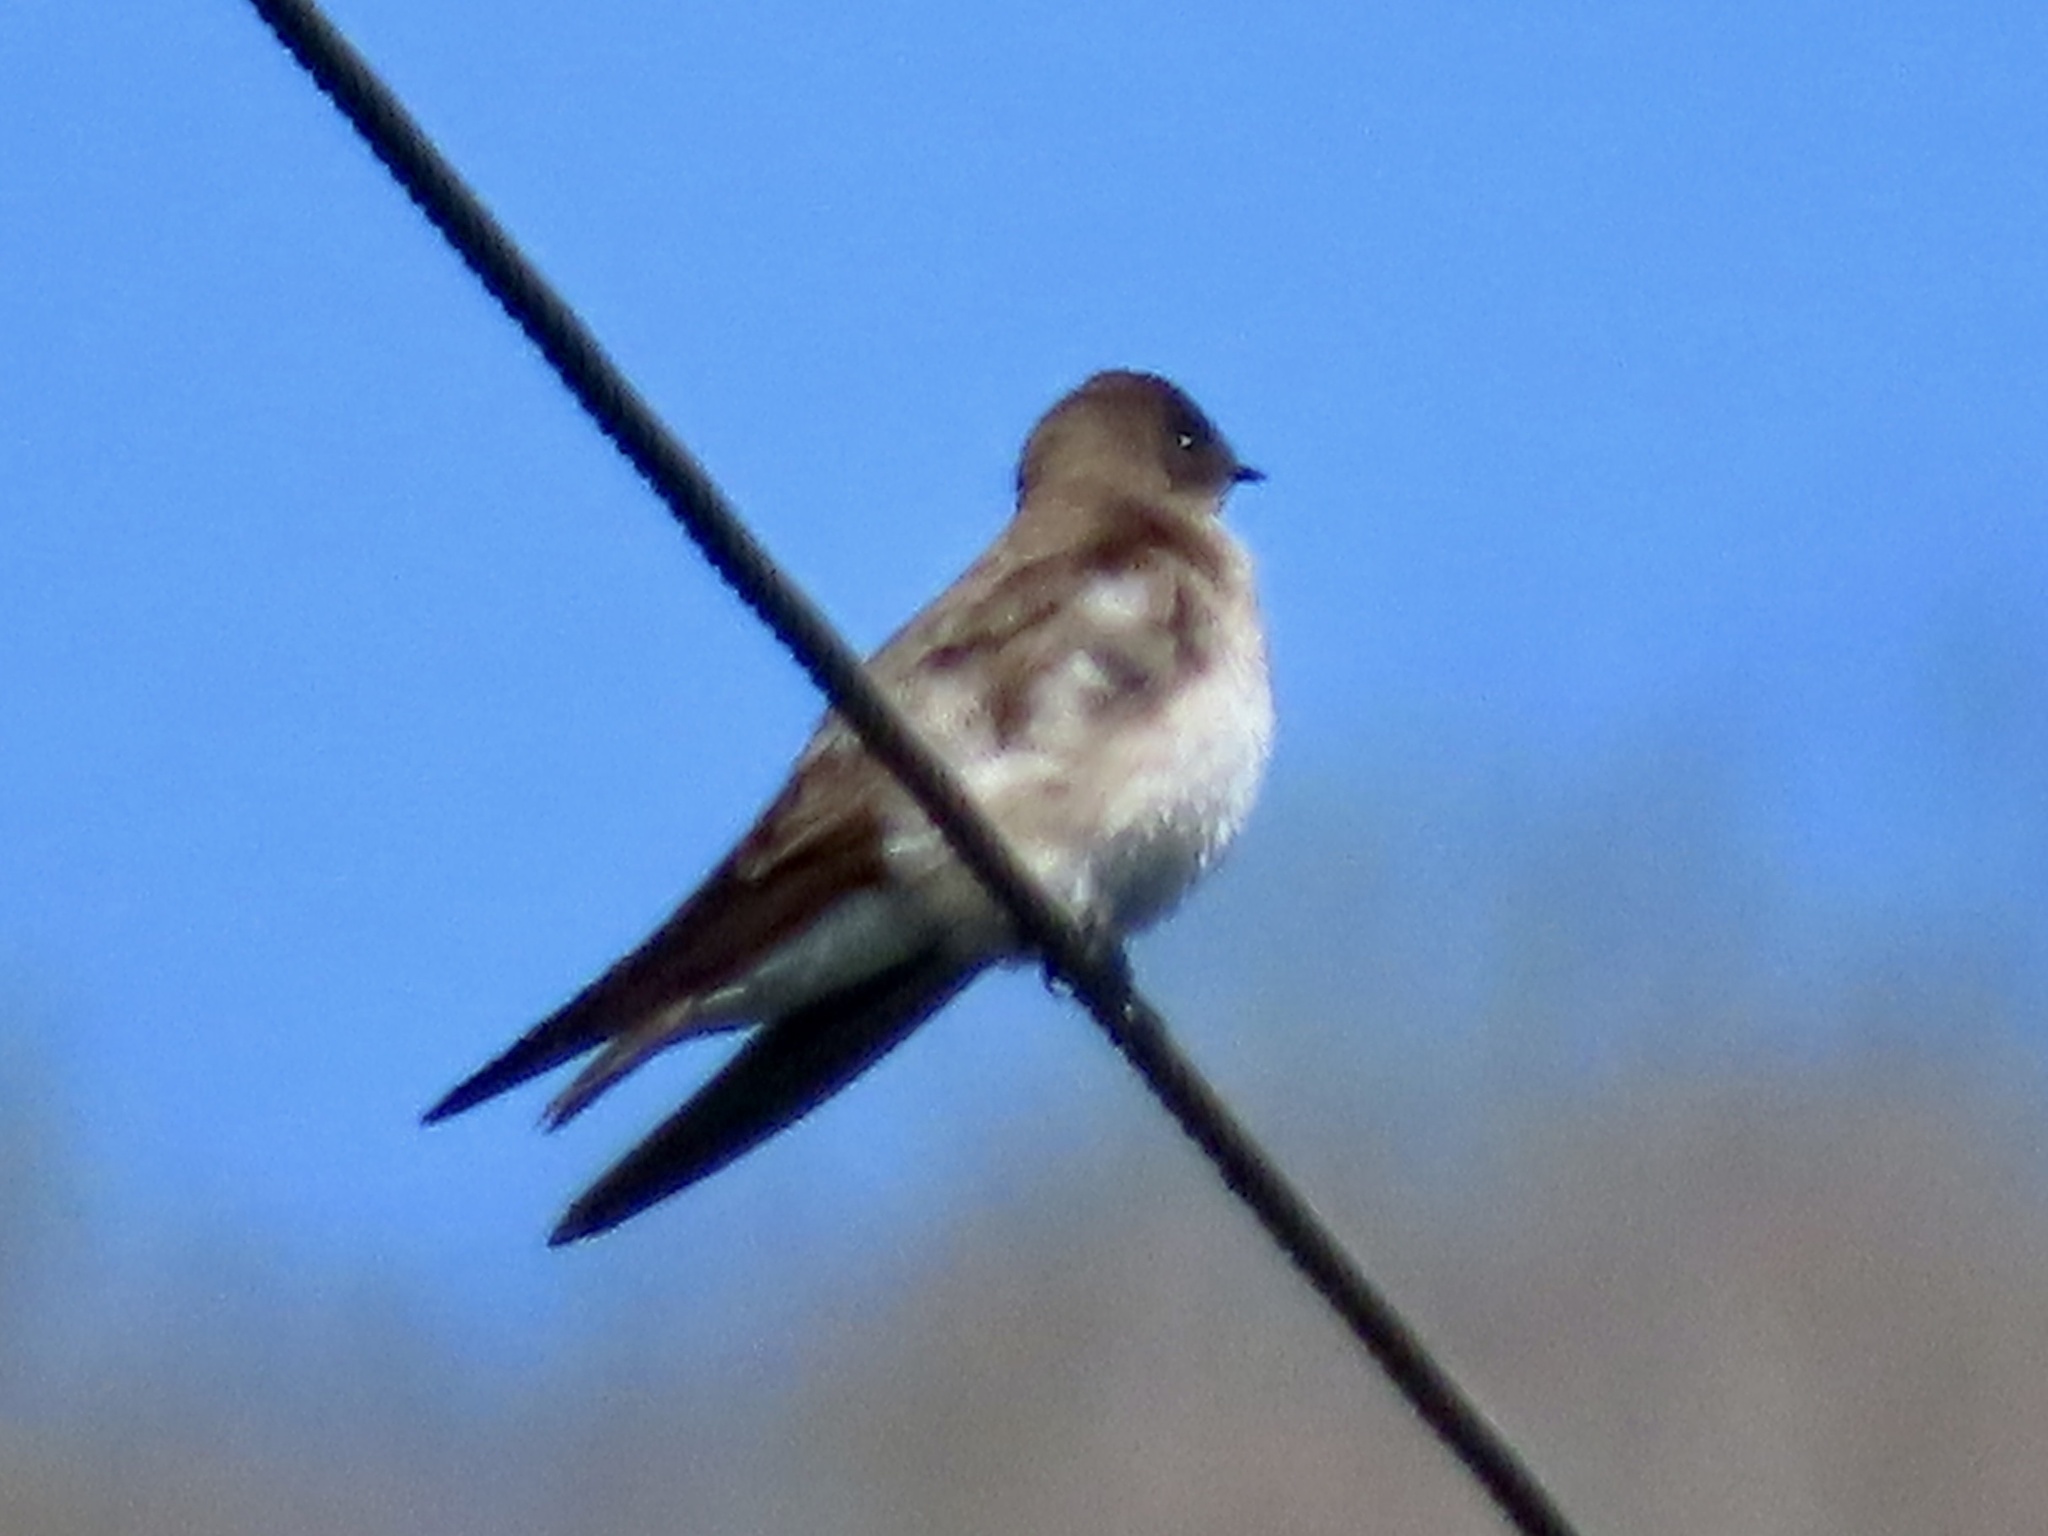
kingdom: Animalia
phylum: Chordata
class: Aves
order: Passeriformes
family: Hirundinidae
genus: Stelgidopteryx
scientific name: Stelgidopteryx serripennis
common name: Northern rough-winged swallow
